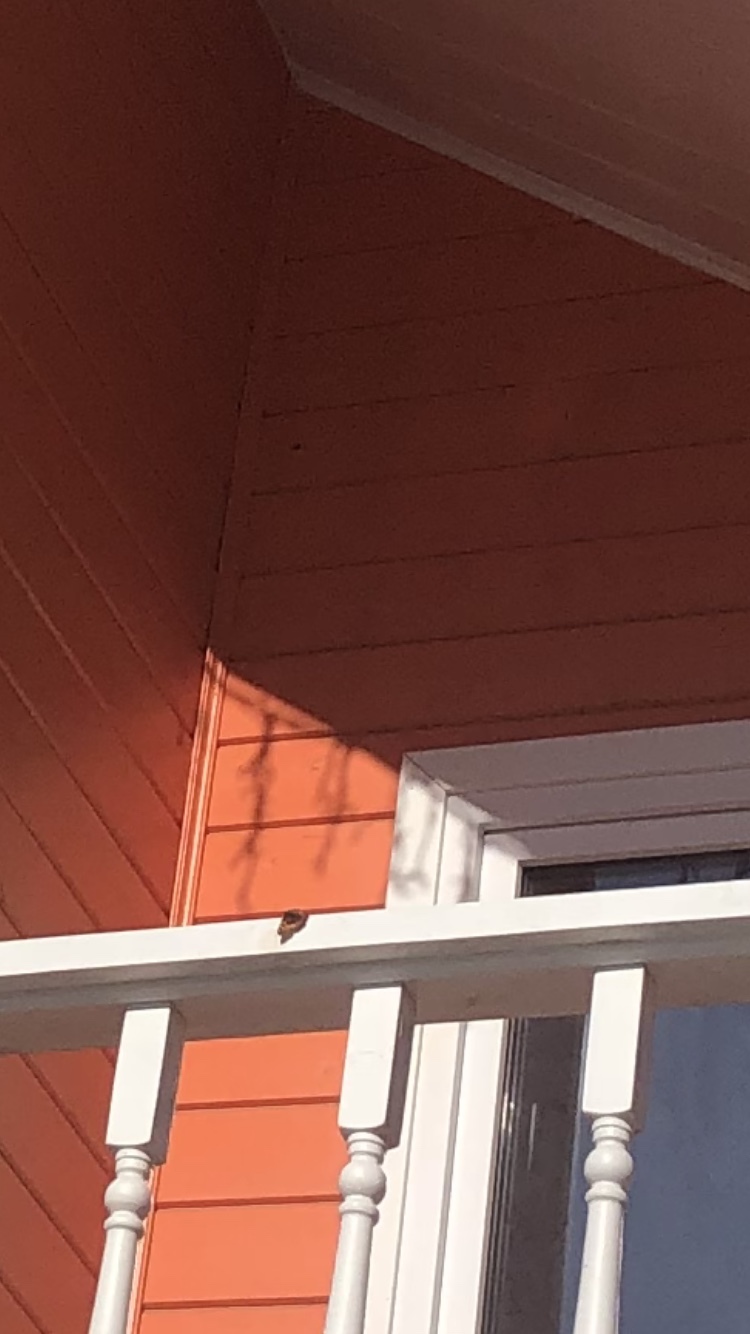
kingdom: Animalia
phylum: Arthropoda
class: Insecta
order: Lepidoptera
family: Nymphalidae
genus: Aglais
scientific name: Aglais urticae
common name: Small tortoiseshell
